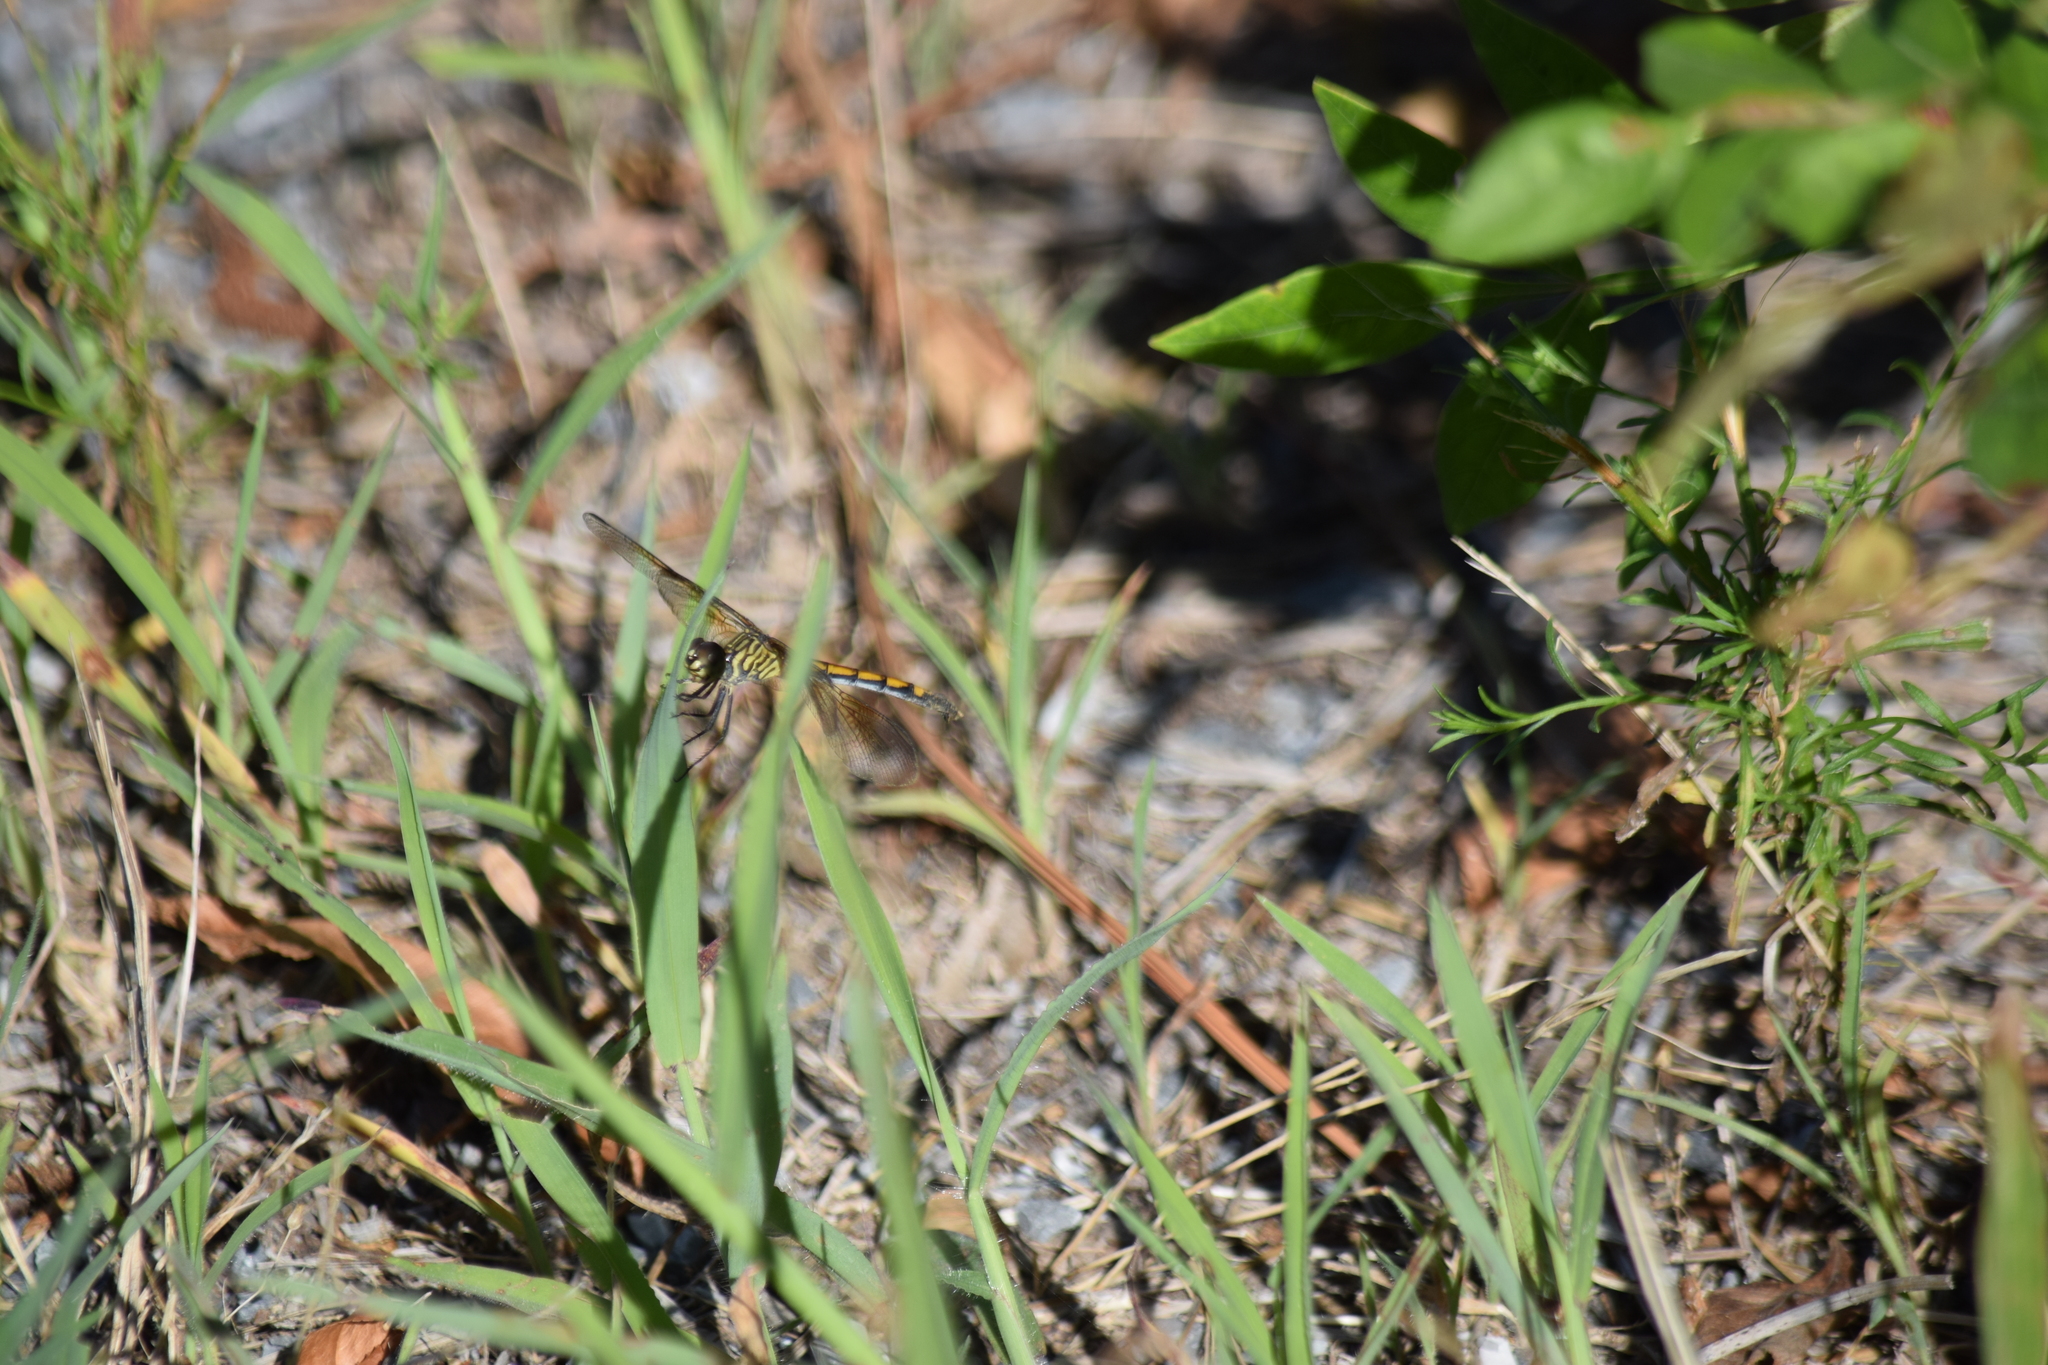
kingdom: Animalia
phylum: Arthropoda
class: Insecta
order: Odonata
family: Libellulidae
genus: Erythrodiplax
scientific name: Erythrodiplax berenice
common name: Seaside dragonlet
